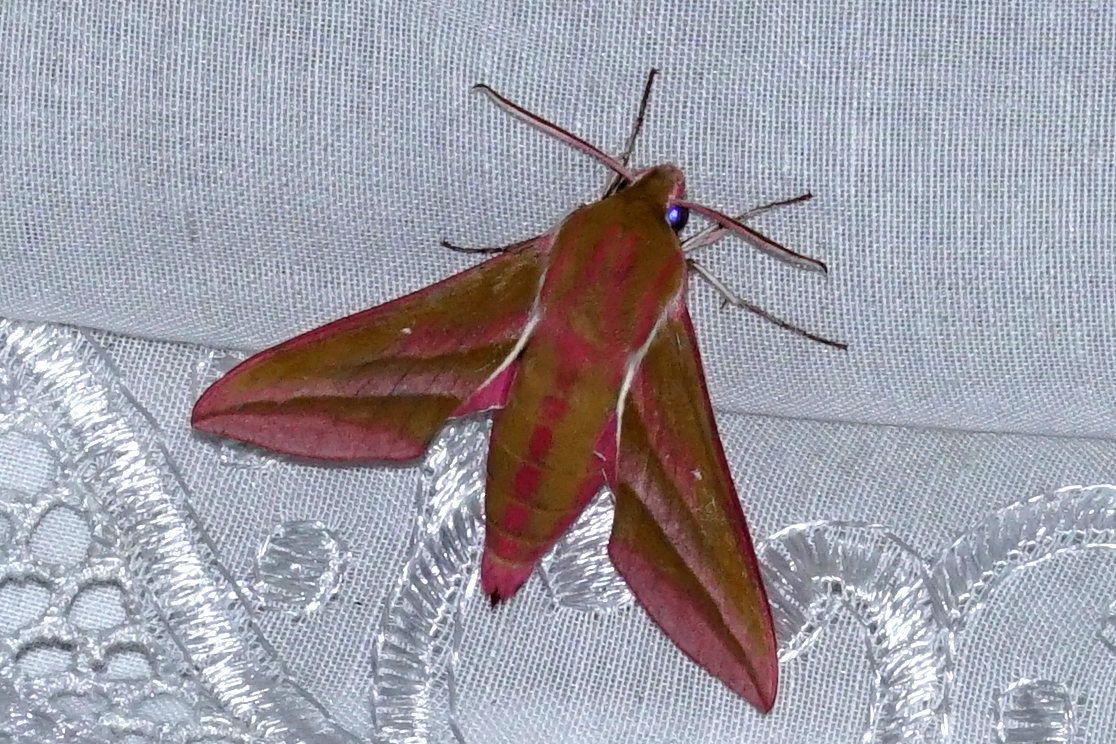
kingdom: Animalia
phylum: Arthropoda
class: Insecta
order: Lepidoptera
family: Sphingidae
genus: Deilephila
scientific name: Deilephila elpenor
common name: Elephant hawk-moth
